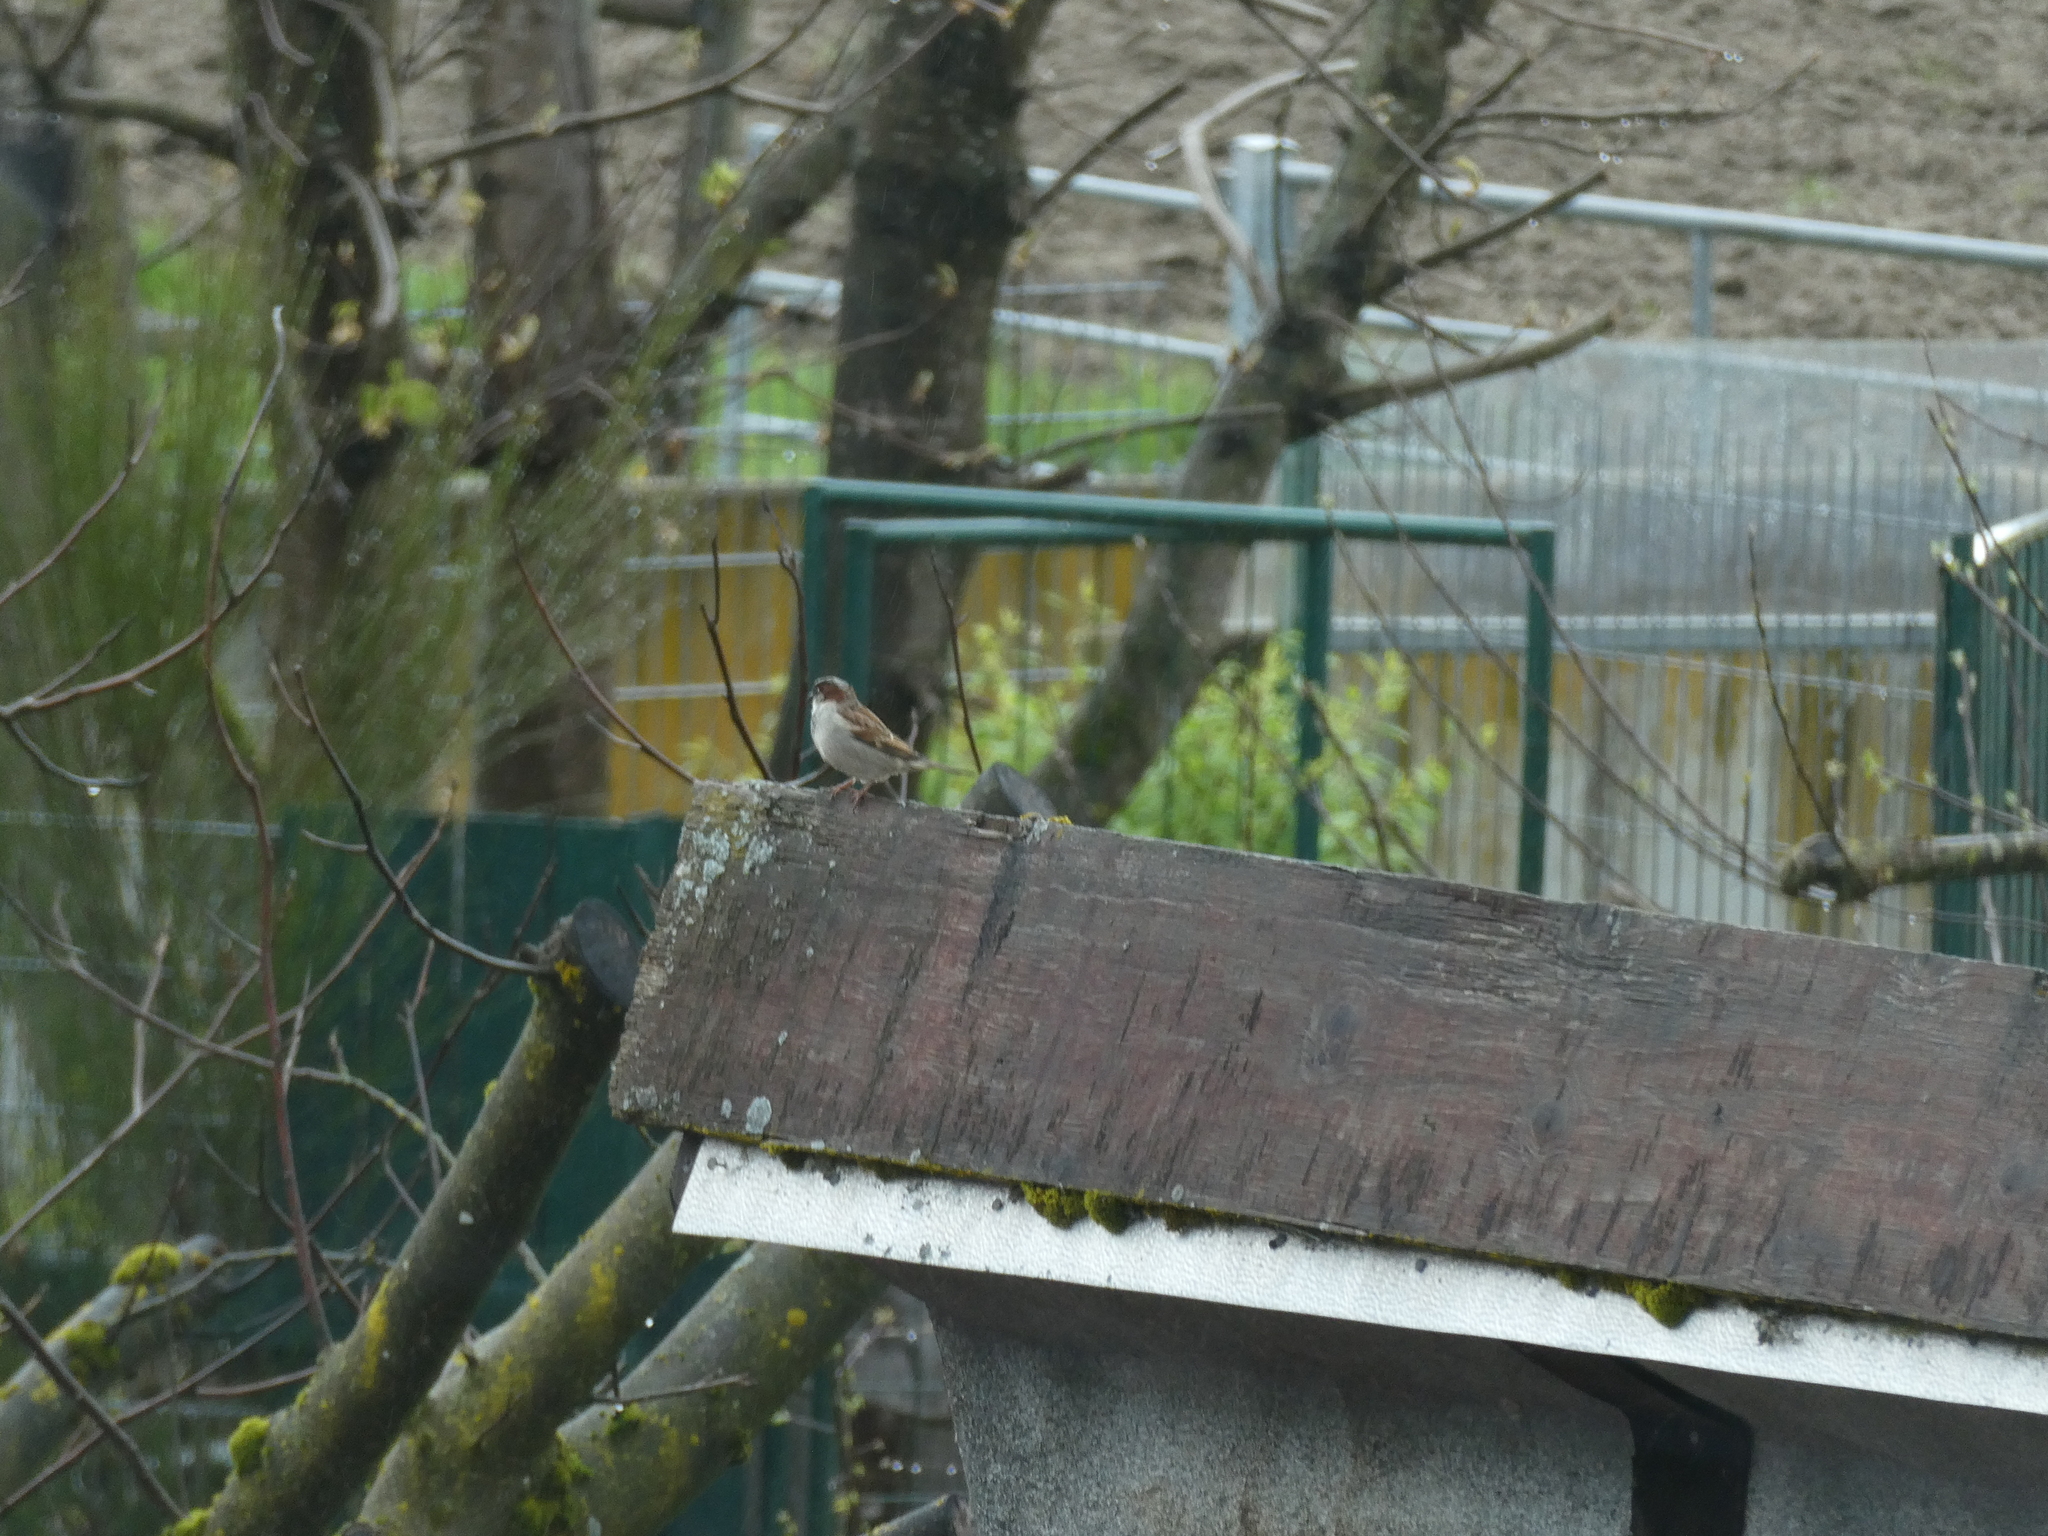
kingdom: Animalia
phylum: Chordata
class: Aves
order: Passeriformes
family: Passeridae
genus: Passer
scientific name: Passer domesticus
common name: House sparrow
